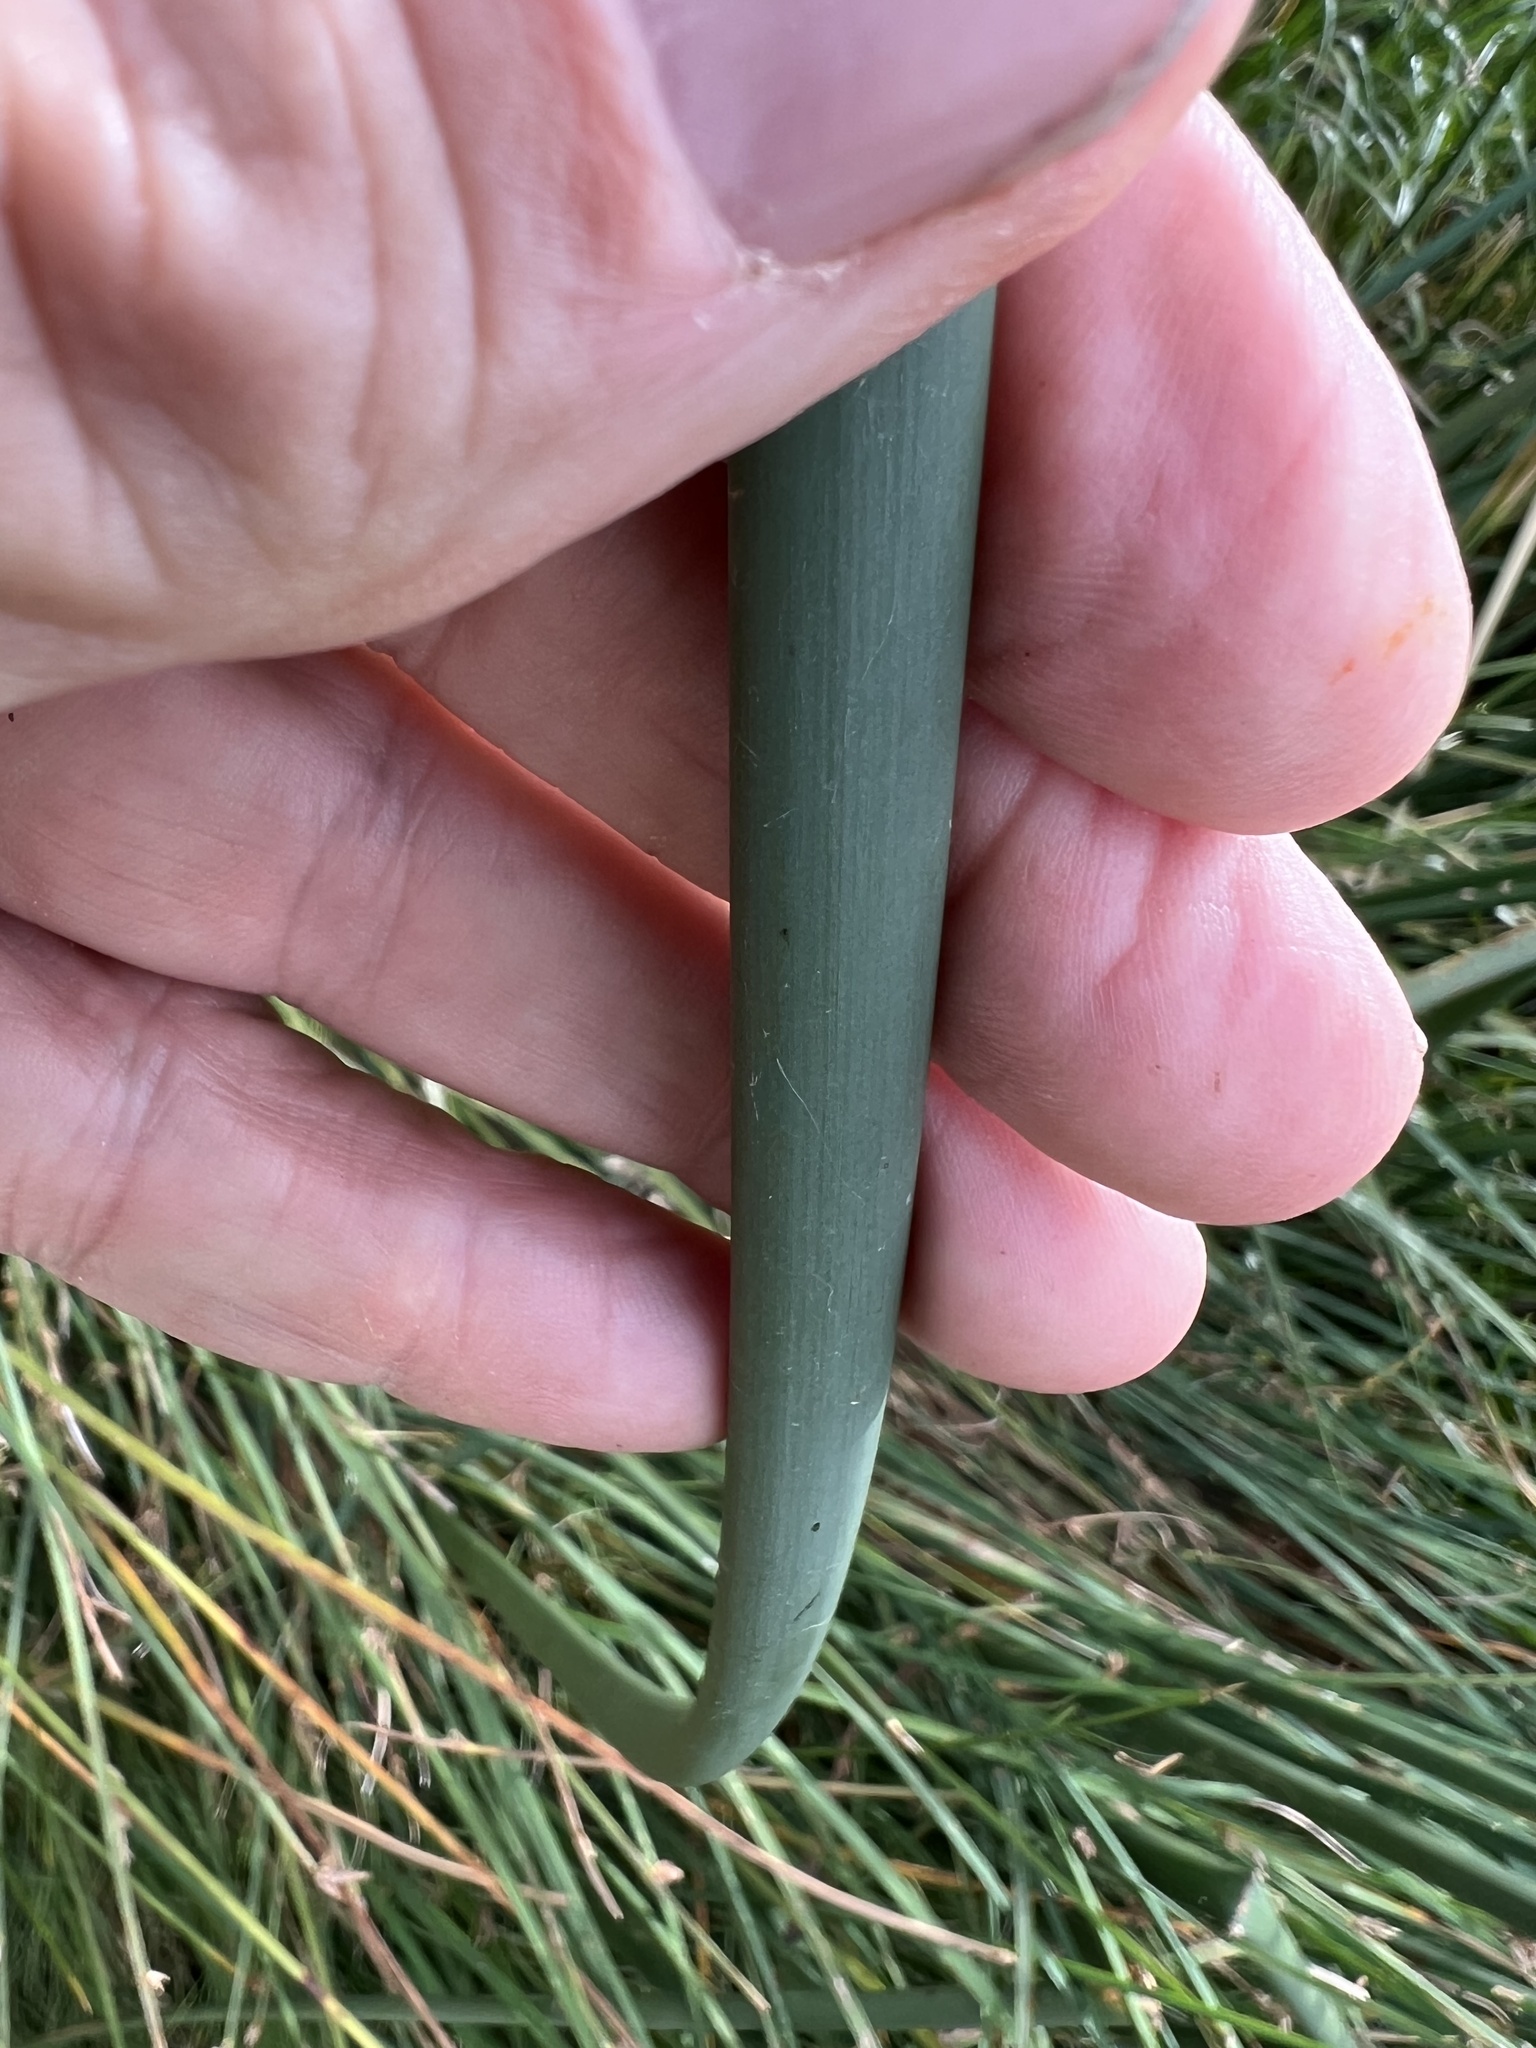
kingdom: Plantae
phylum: Tracheophyta
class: Liliopsida
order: Poales
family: Cyperaceae
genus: Schoenoplectus
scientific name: Schoenoplectus acutus
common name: Hardstem bulrush
